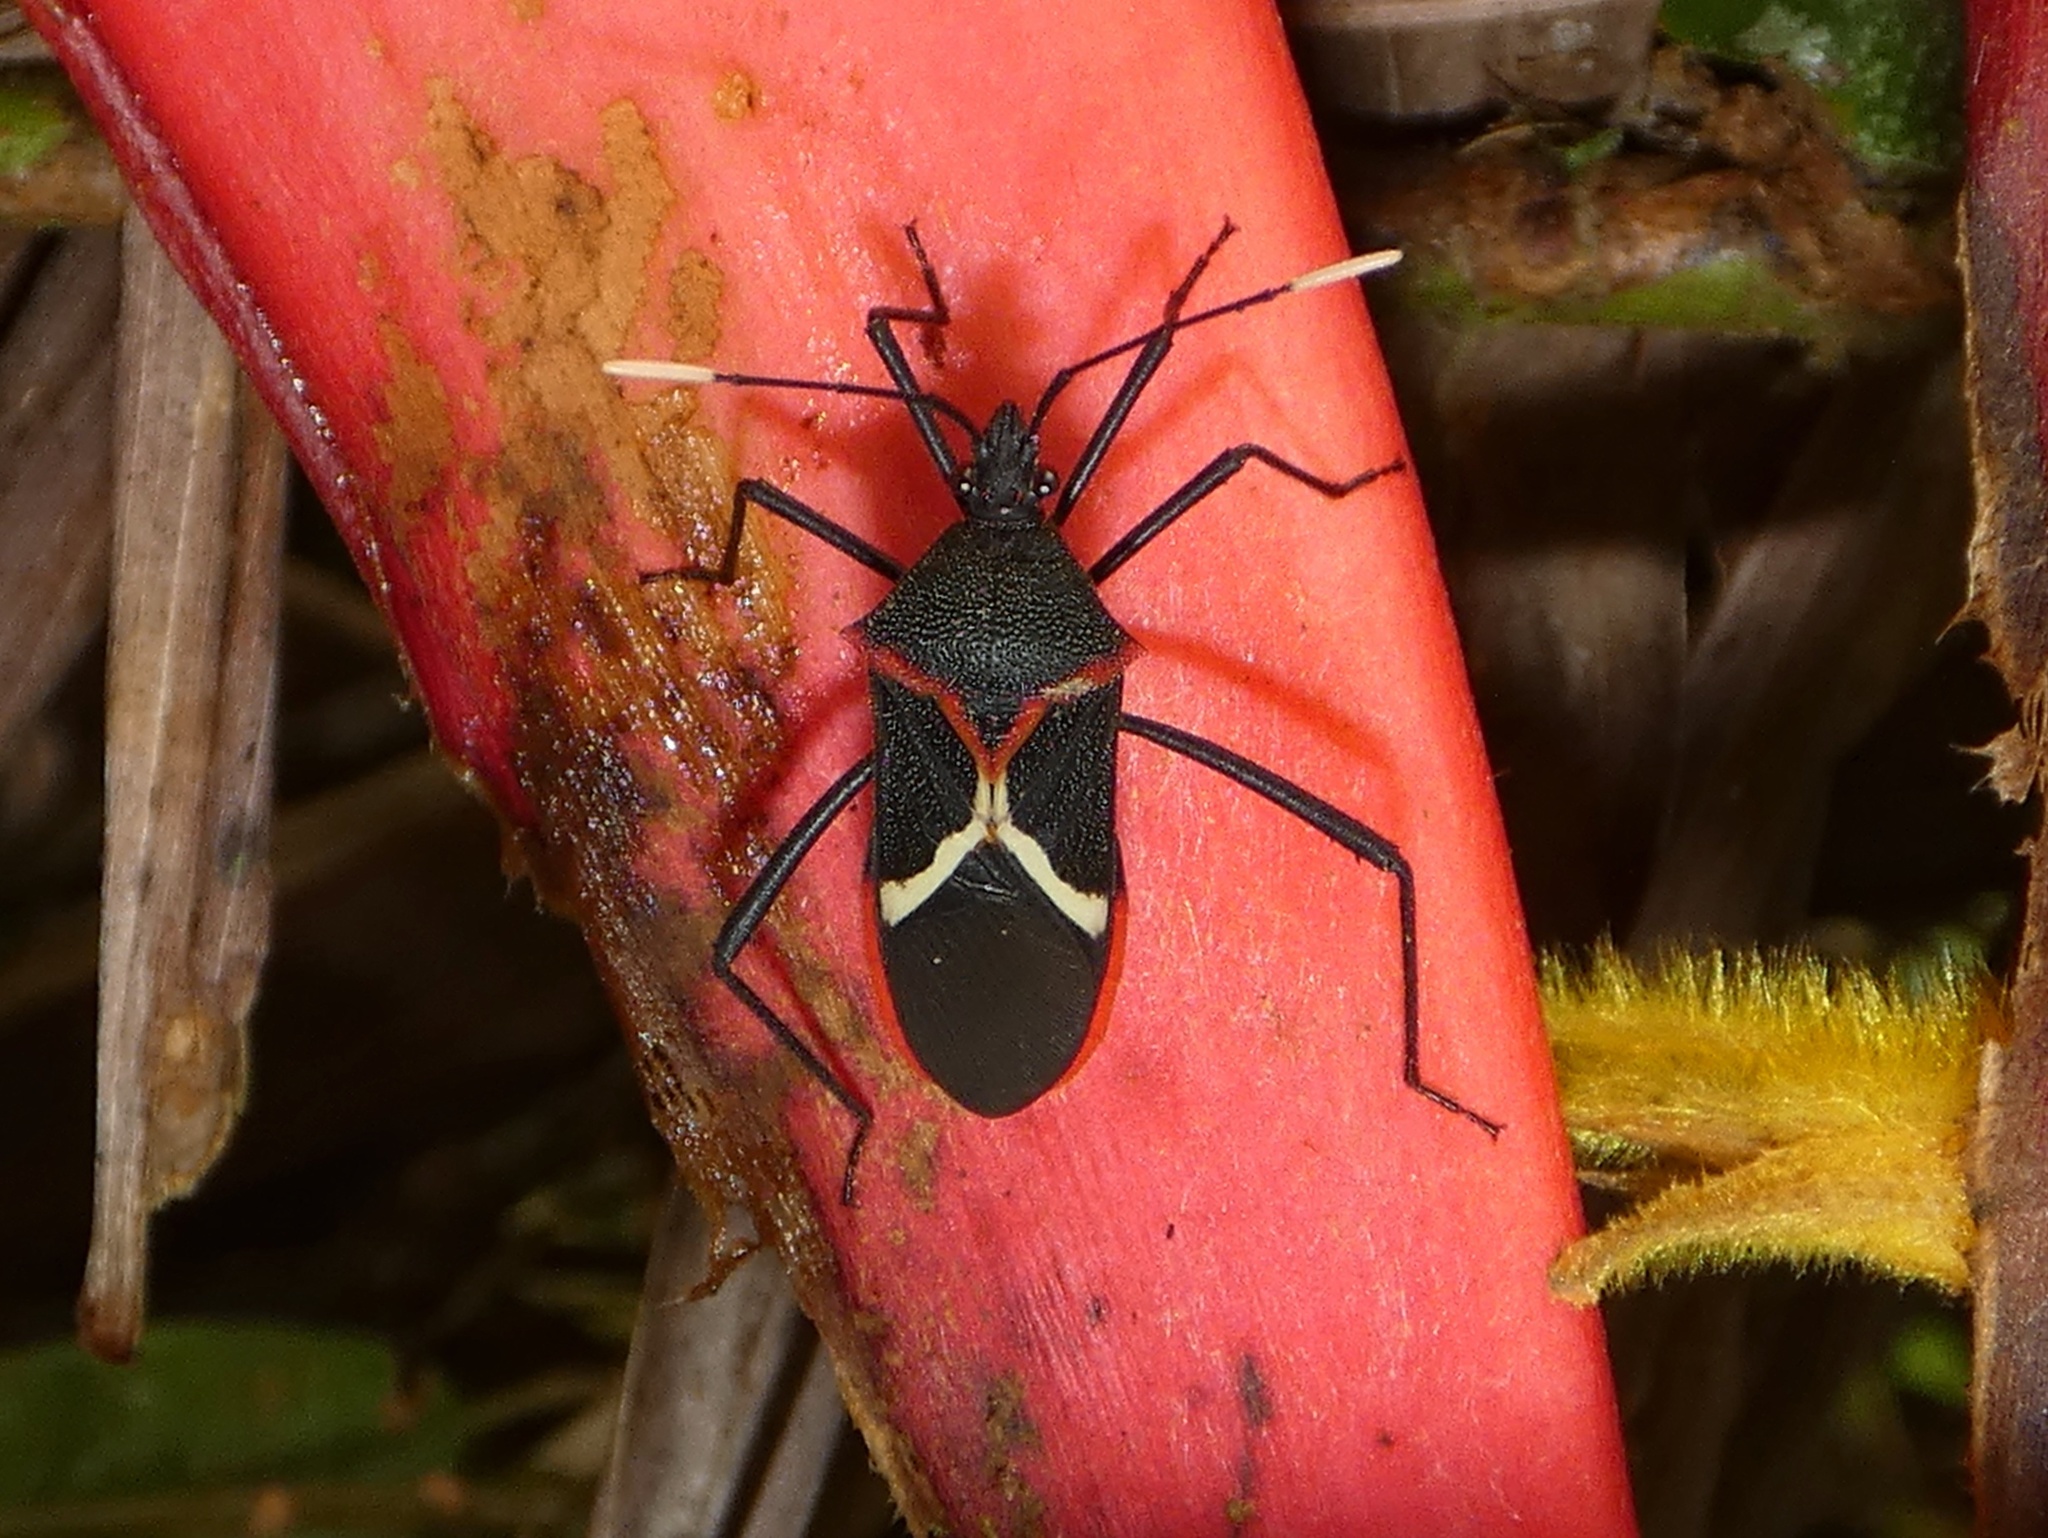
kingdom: Animalia
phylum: Arthropoda
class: Insecta
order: Hemiptera
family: Coreidae
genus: Leptoscelis
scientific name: Leptoscelis conspicuus
